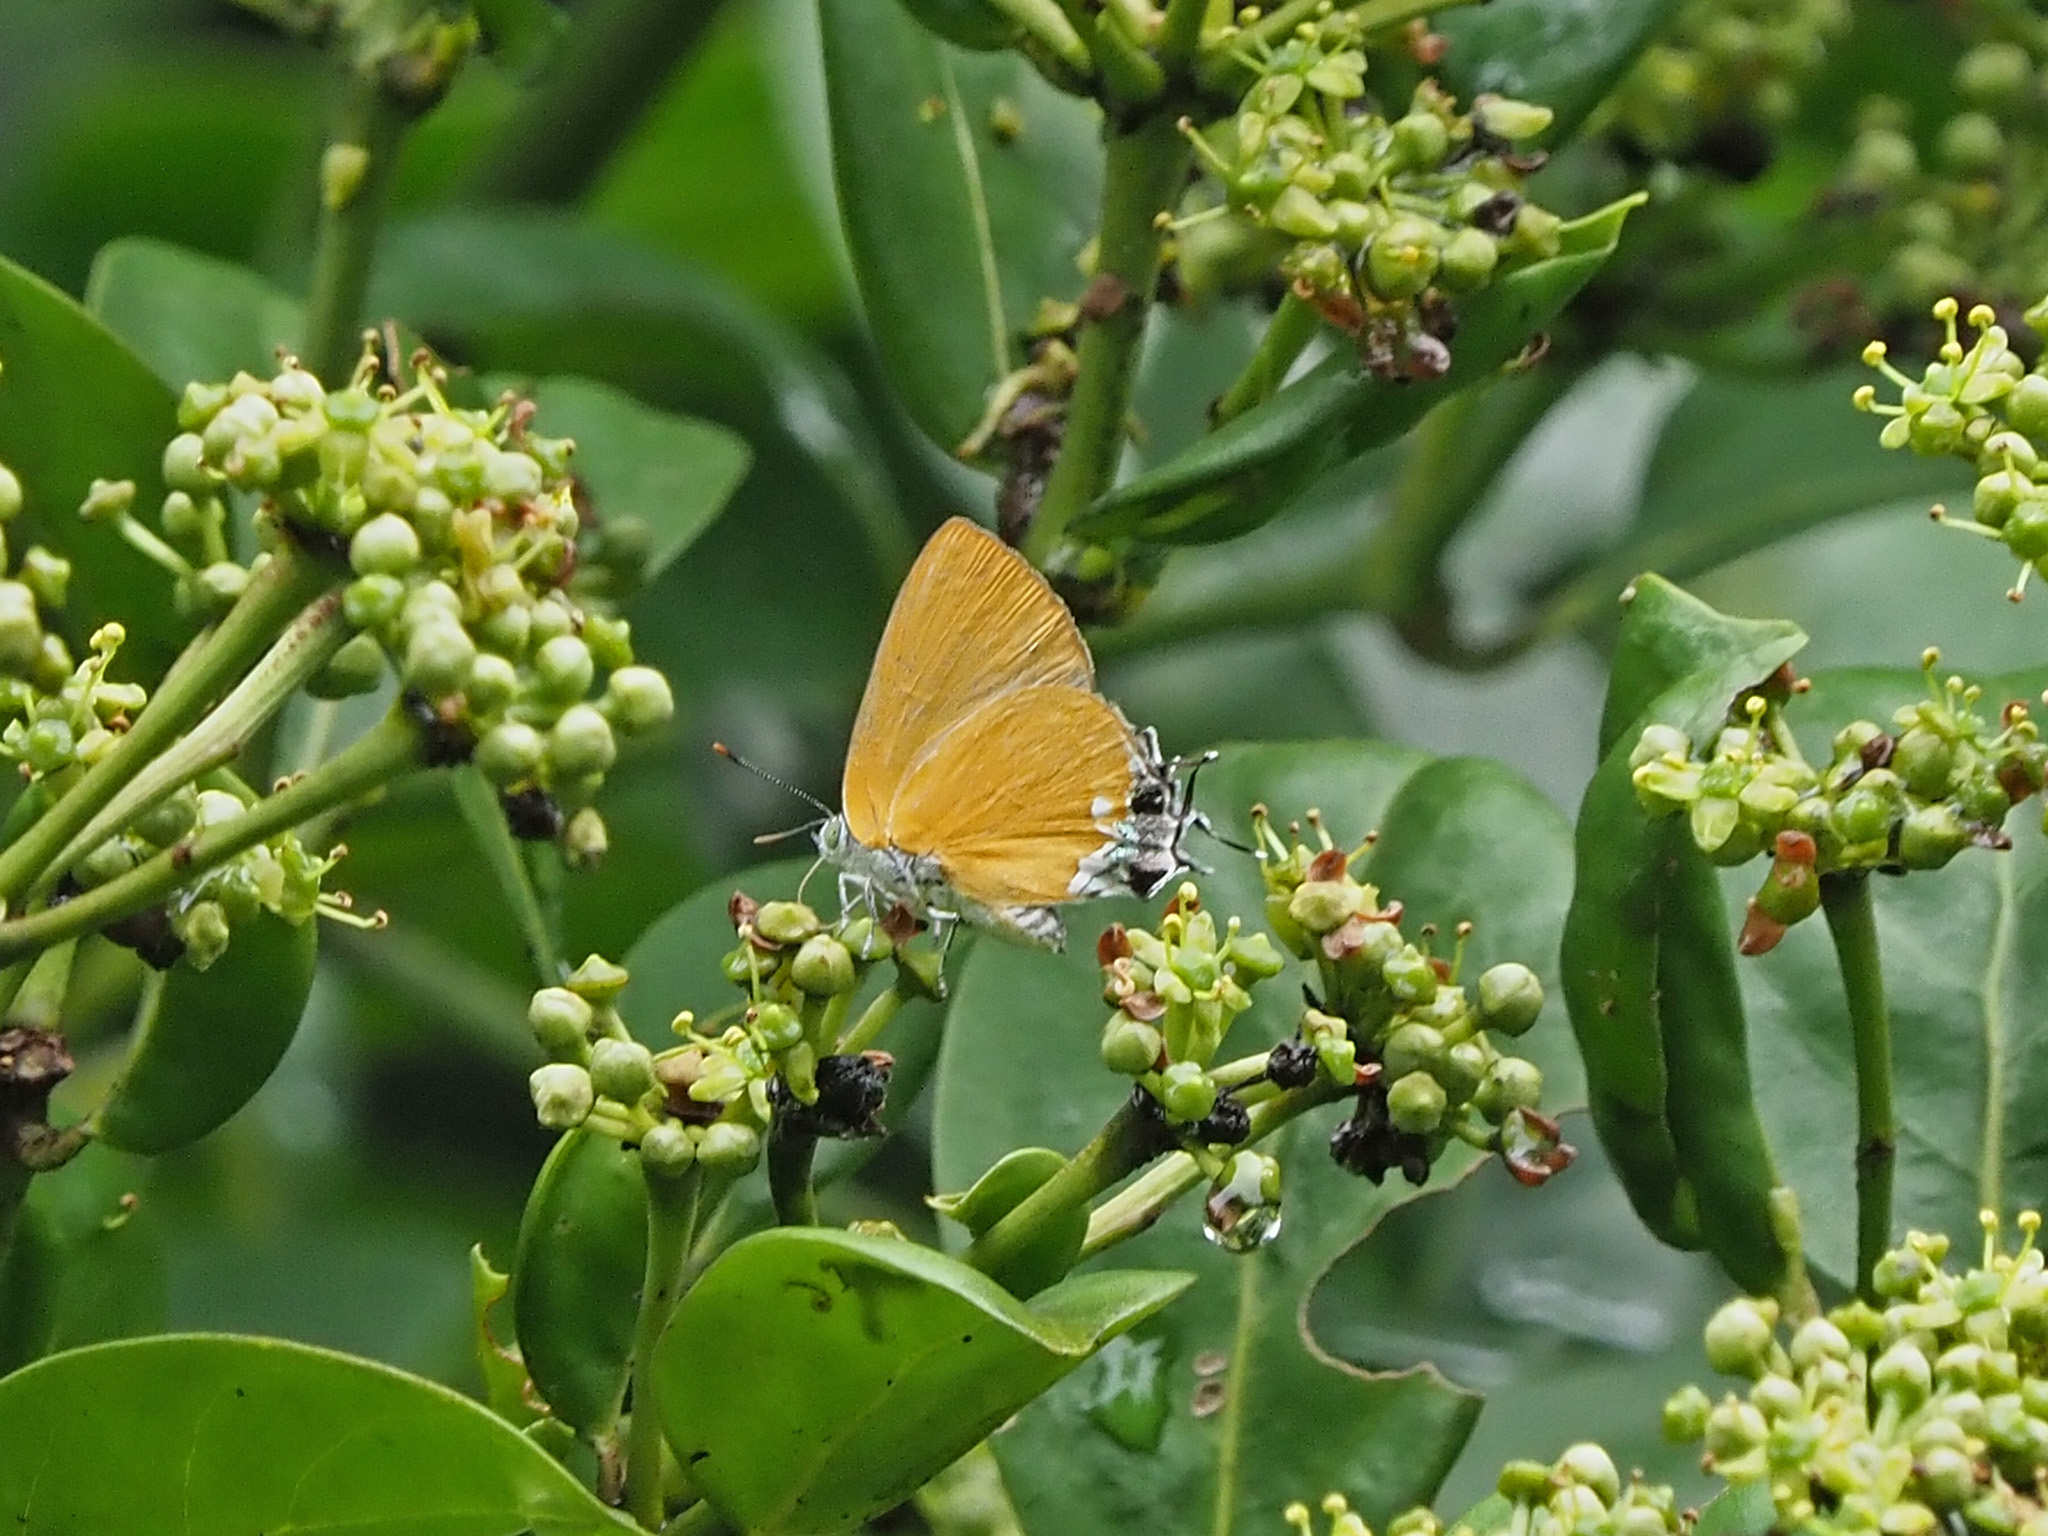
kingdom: Animalia
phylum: Arthropoda
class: Insecta
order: Lepidoptera
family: Lycaenidae
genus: Pseudomyrina
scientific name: Pseudomyrina
